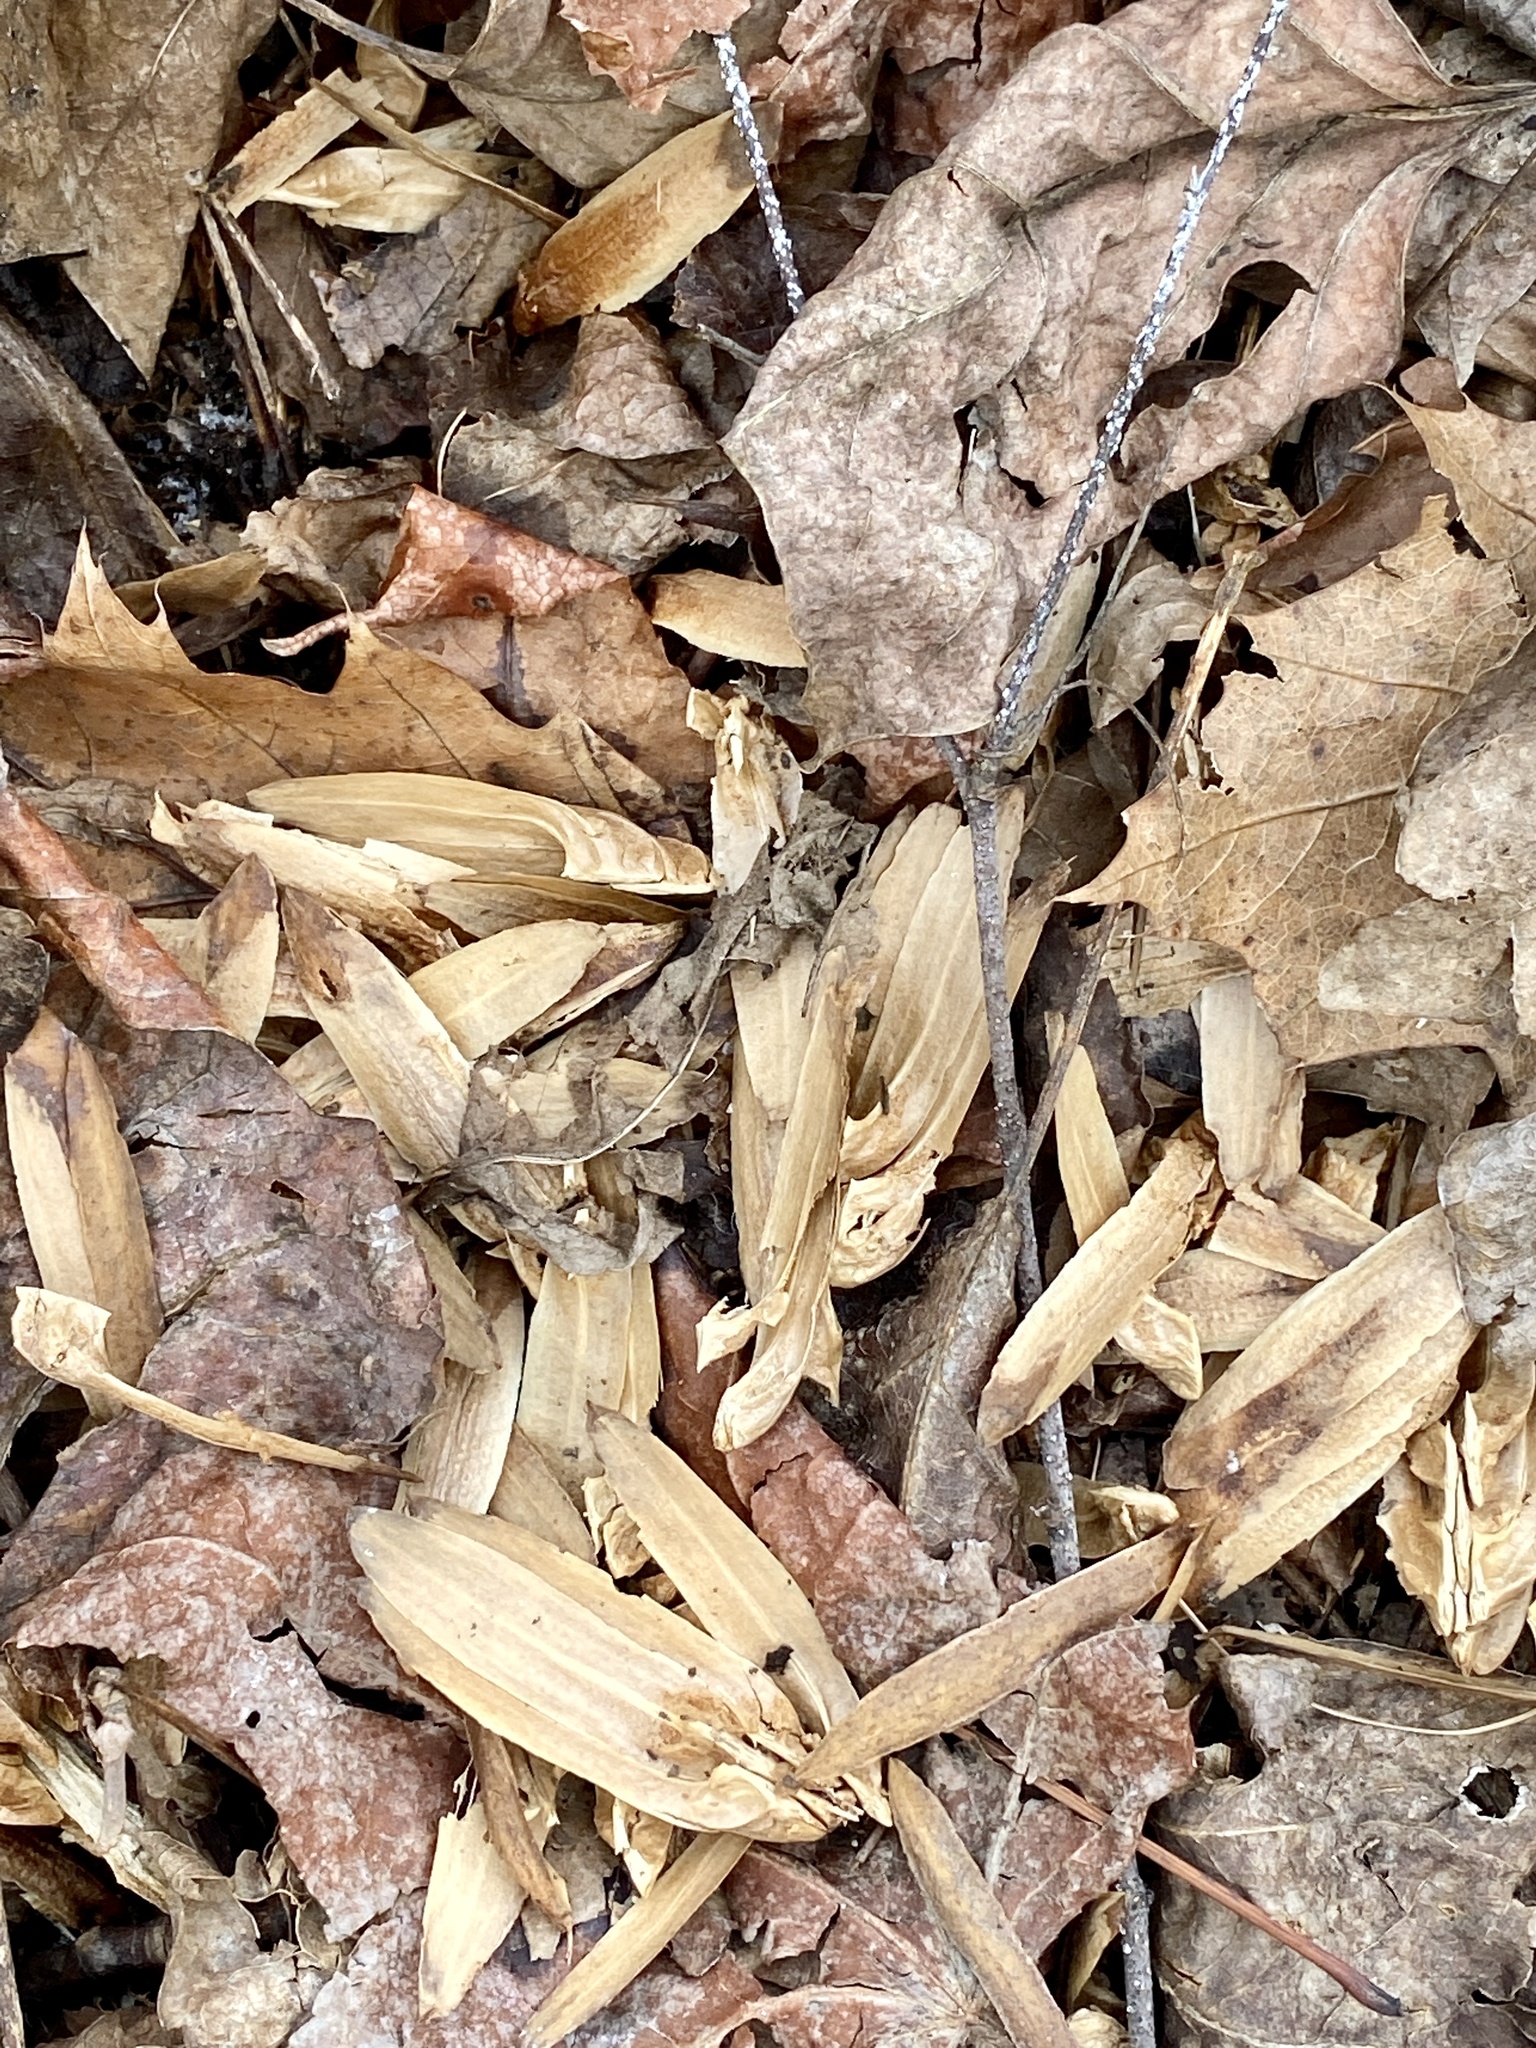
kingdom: Plantae
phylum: Tracheophyta
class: Magnoliopsida
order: Magnoliales
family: Magnoliaceae
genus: Liriodendron
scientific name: Liriodendron tulipifera
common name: Tulip tree
